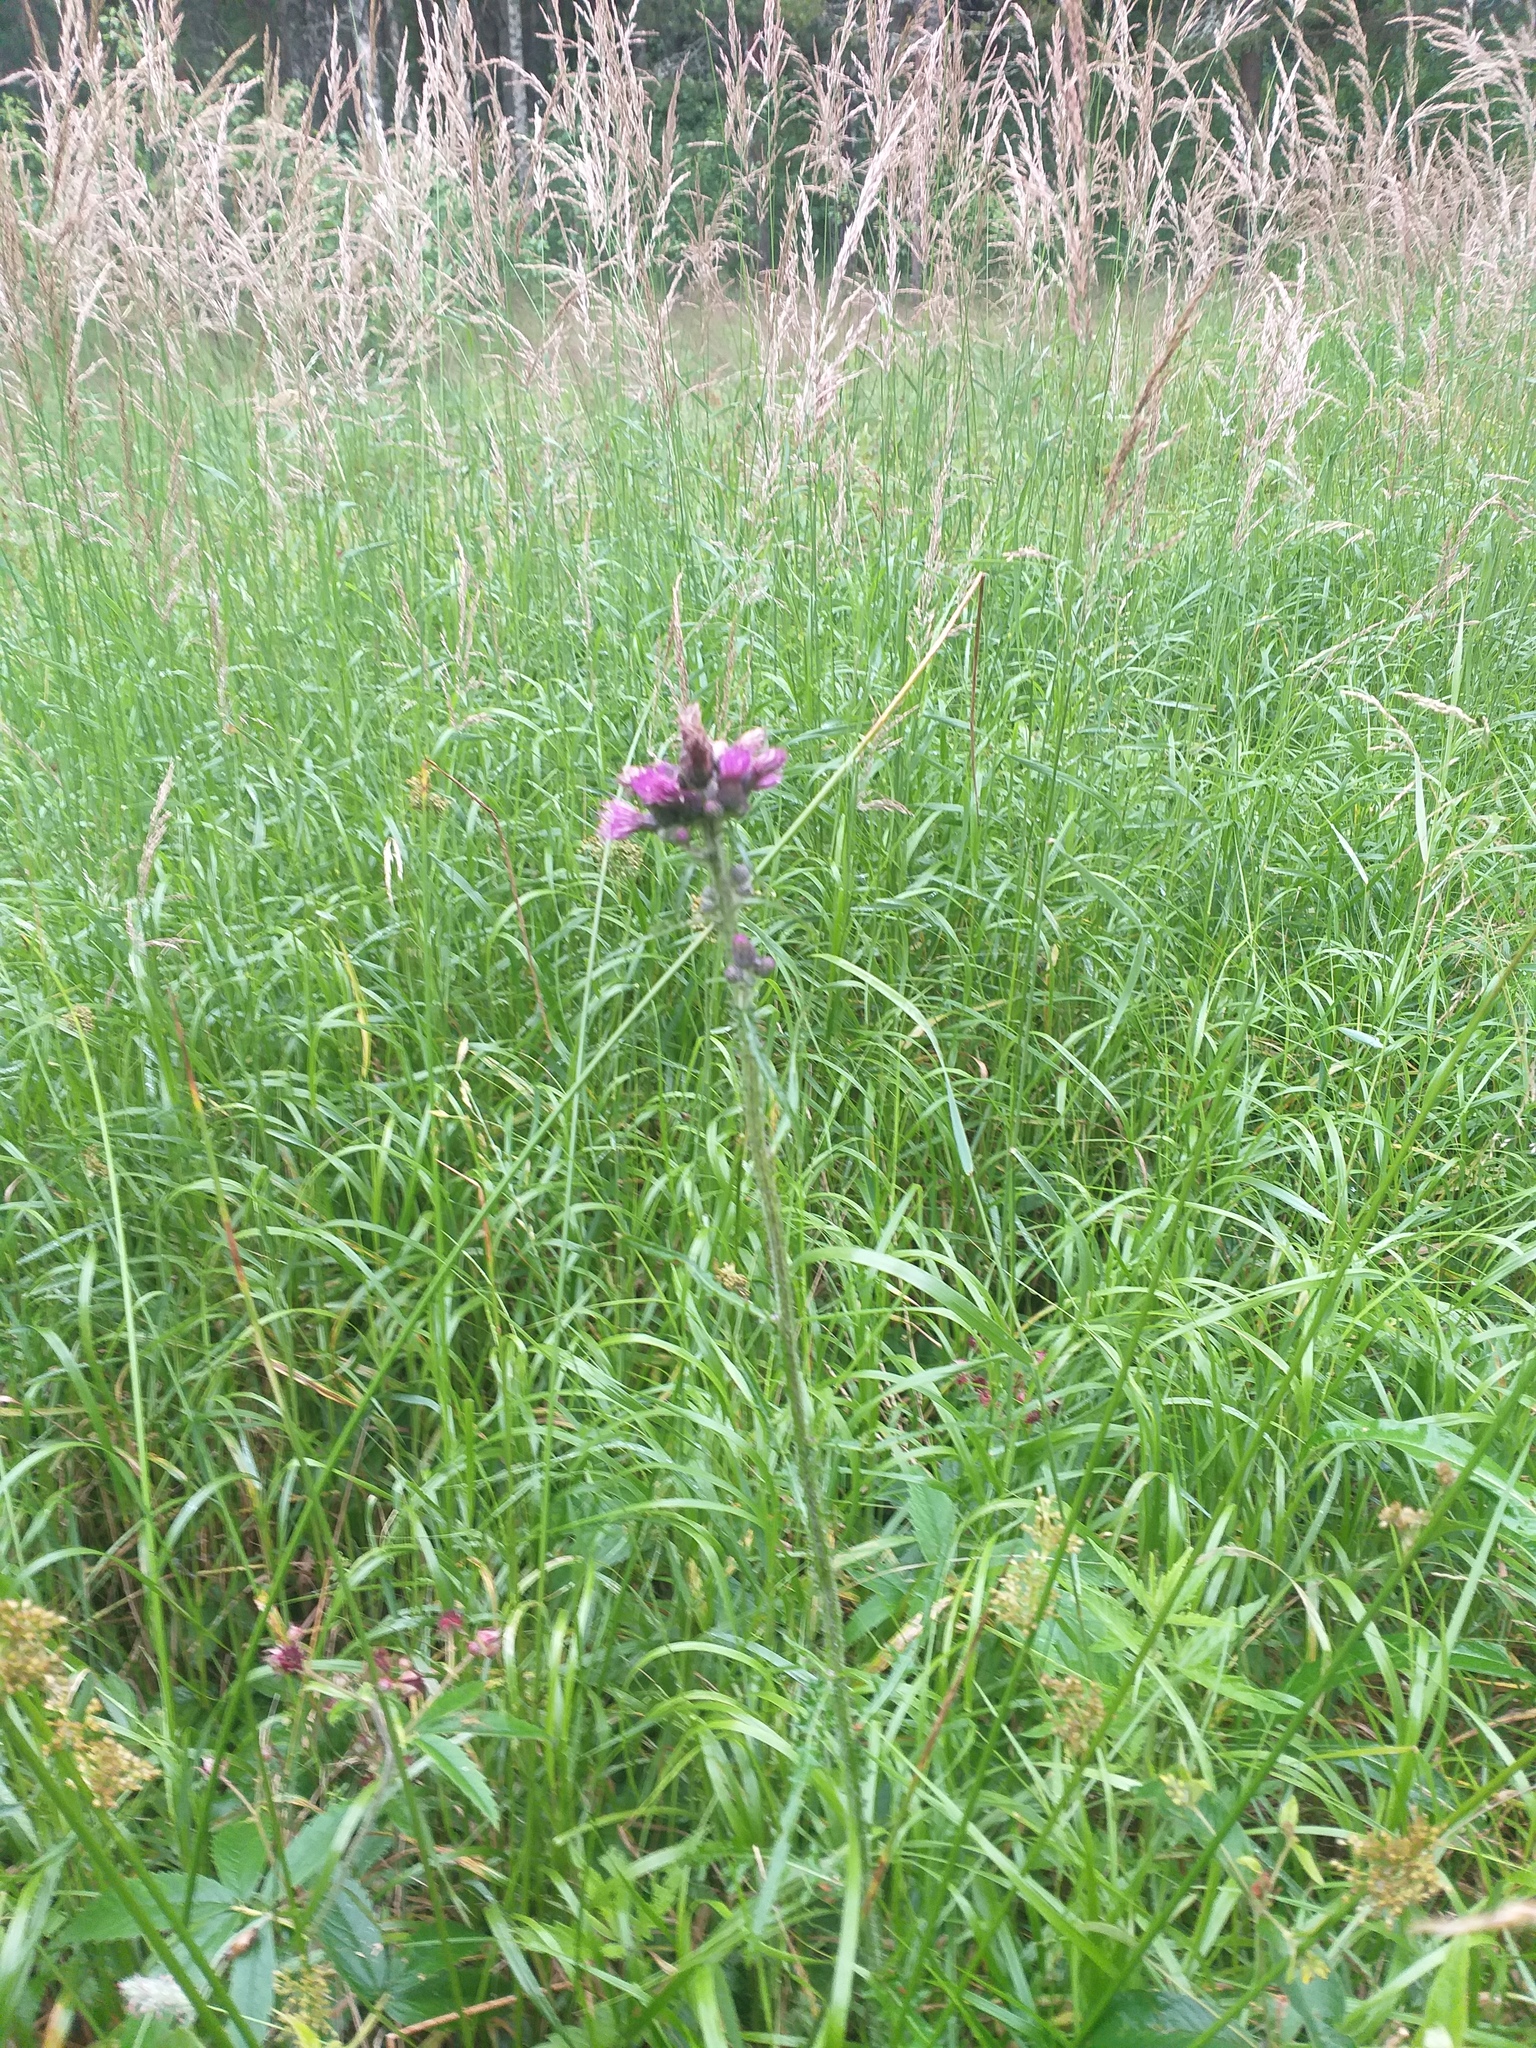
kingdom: Plantae
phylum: Tracheophyta
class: Magnoliopsida
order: Asterales
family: Asteraceae
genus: Cirsium
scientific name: Cirsium palustre
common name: Marsh thistle
